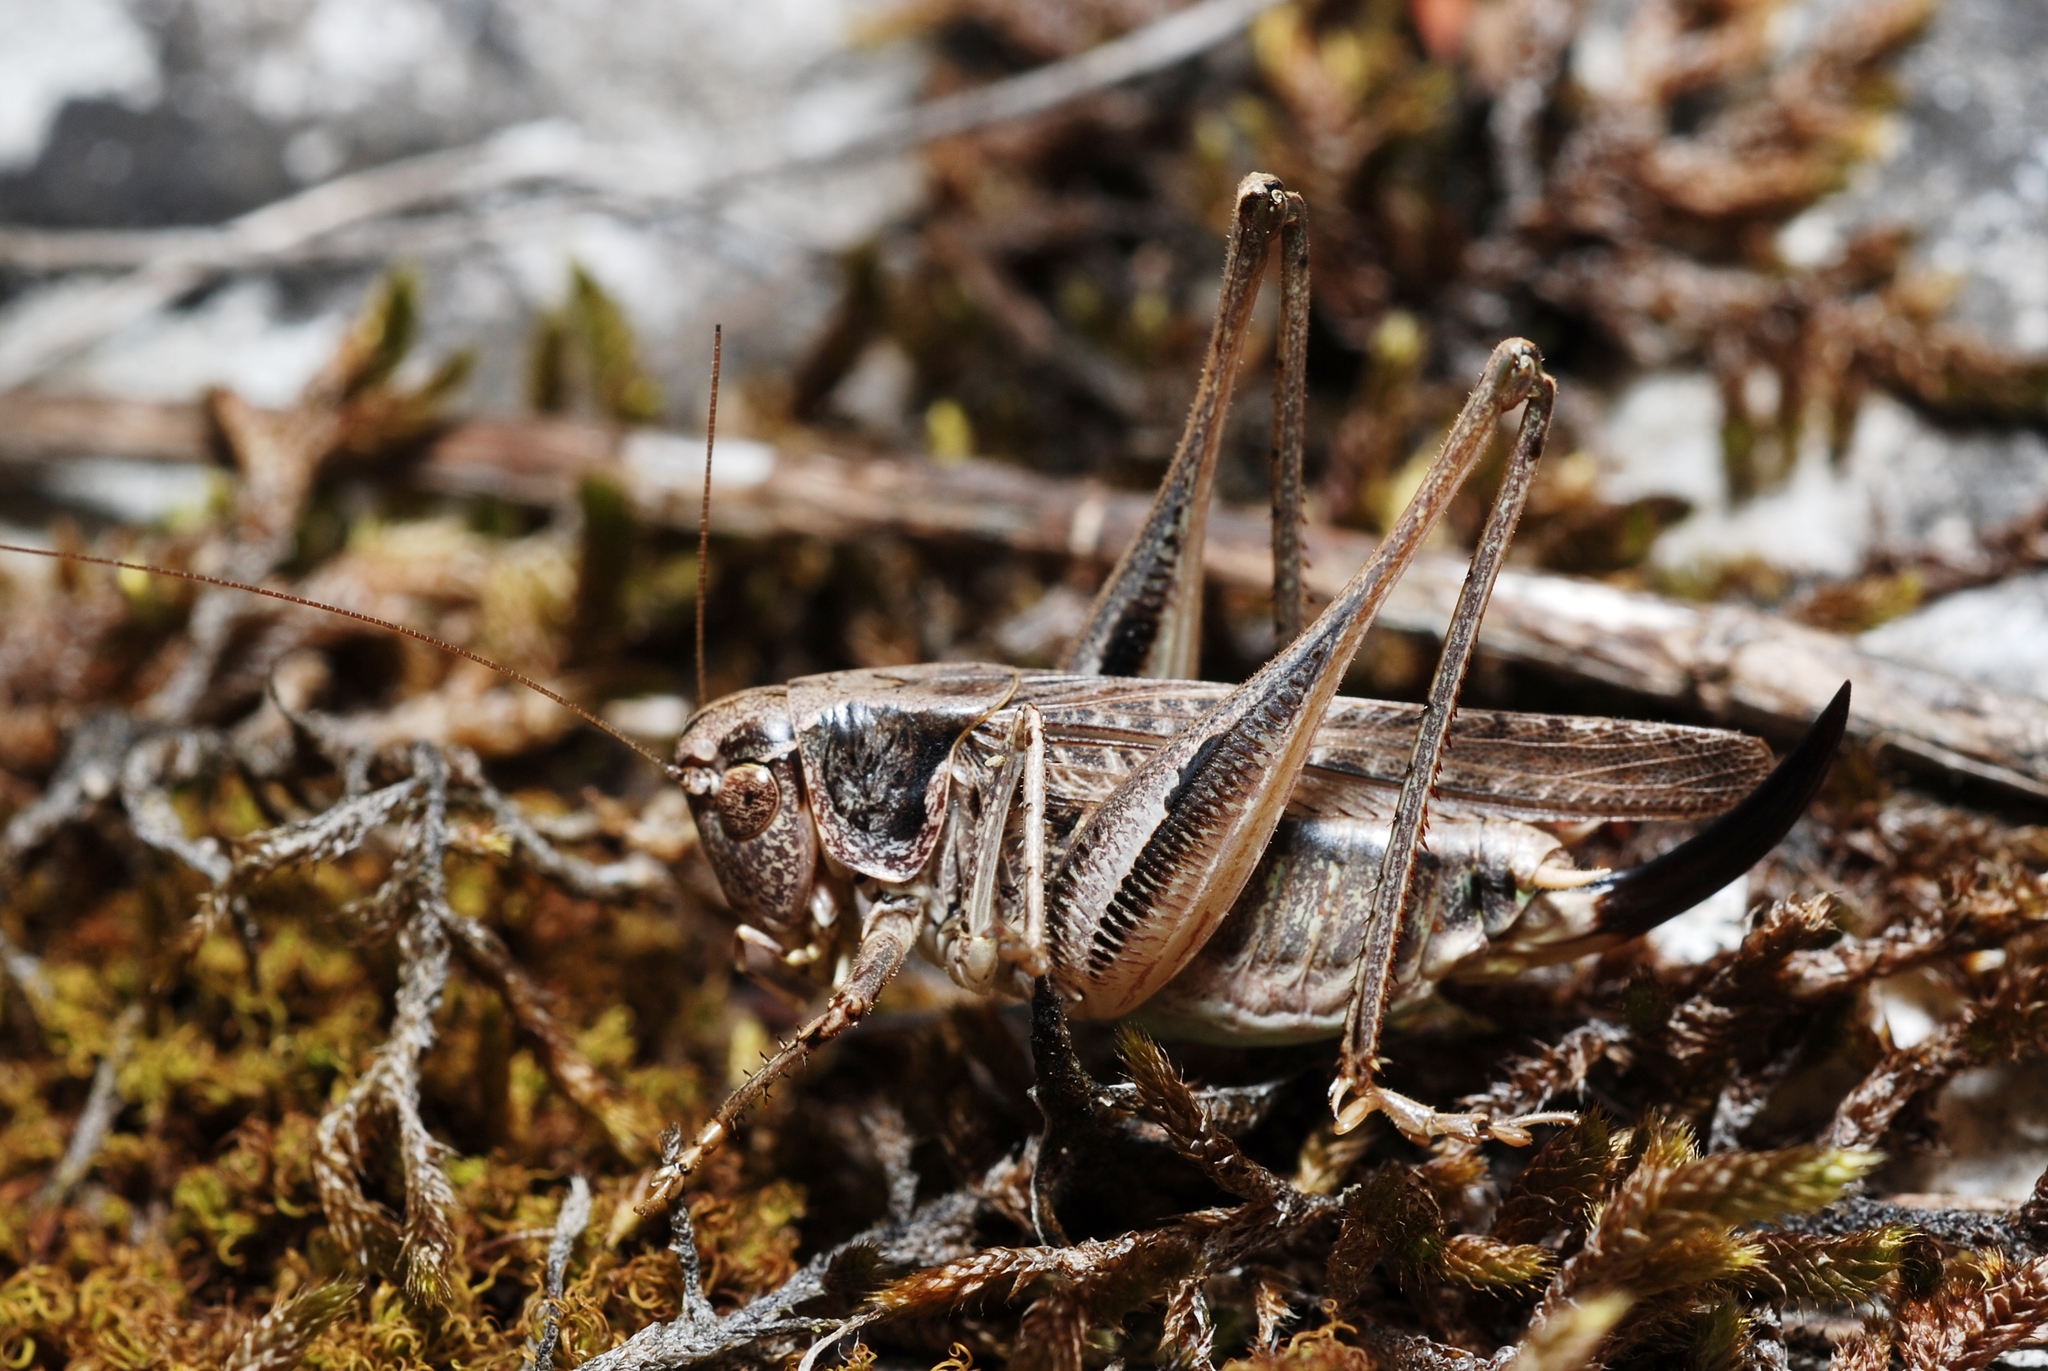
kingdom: Animalia
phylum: Arthropoda
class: Insecta
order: Orthoptera
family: Tettigoniidae
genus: Platycleis
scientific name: Platycleis albopunctata
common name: Grey bush-cricket
